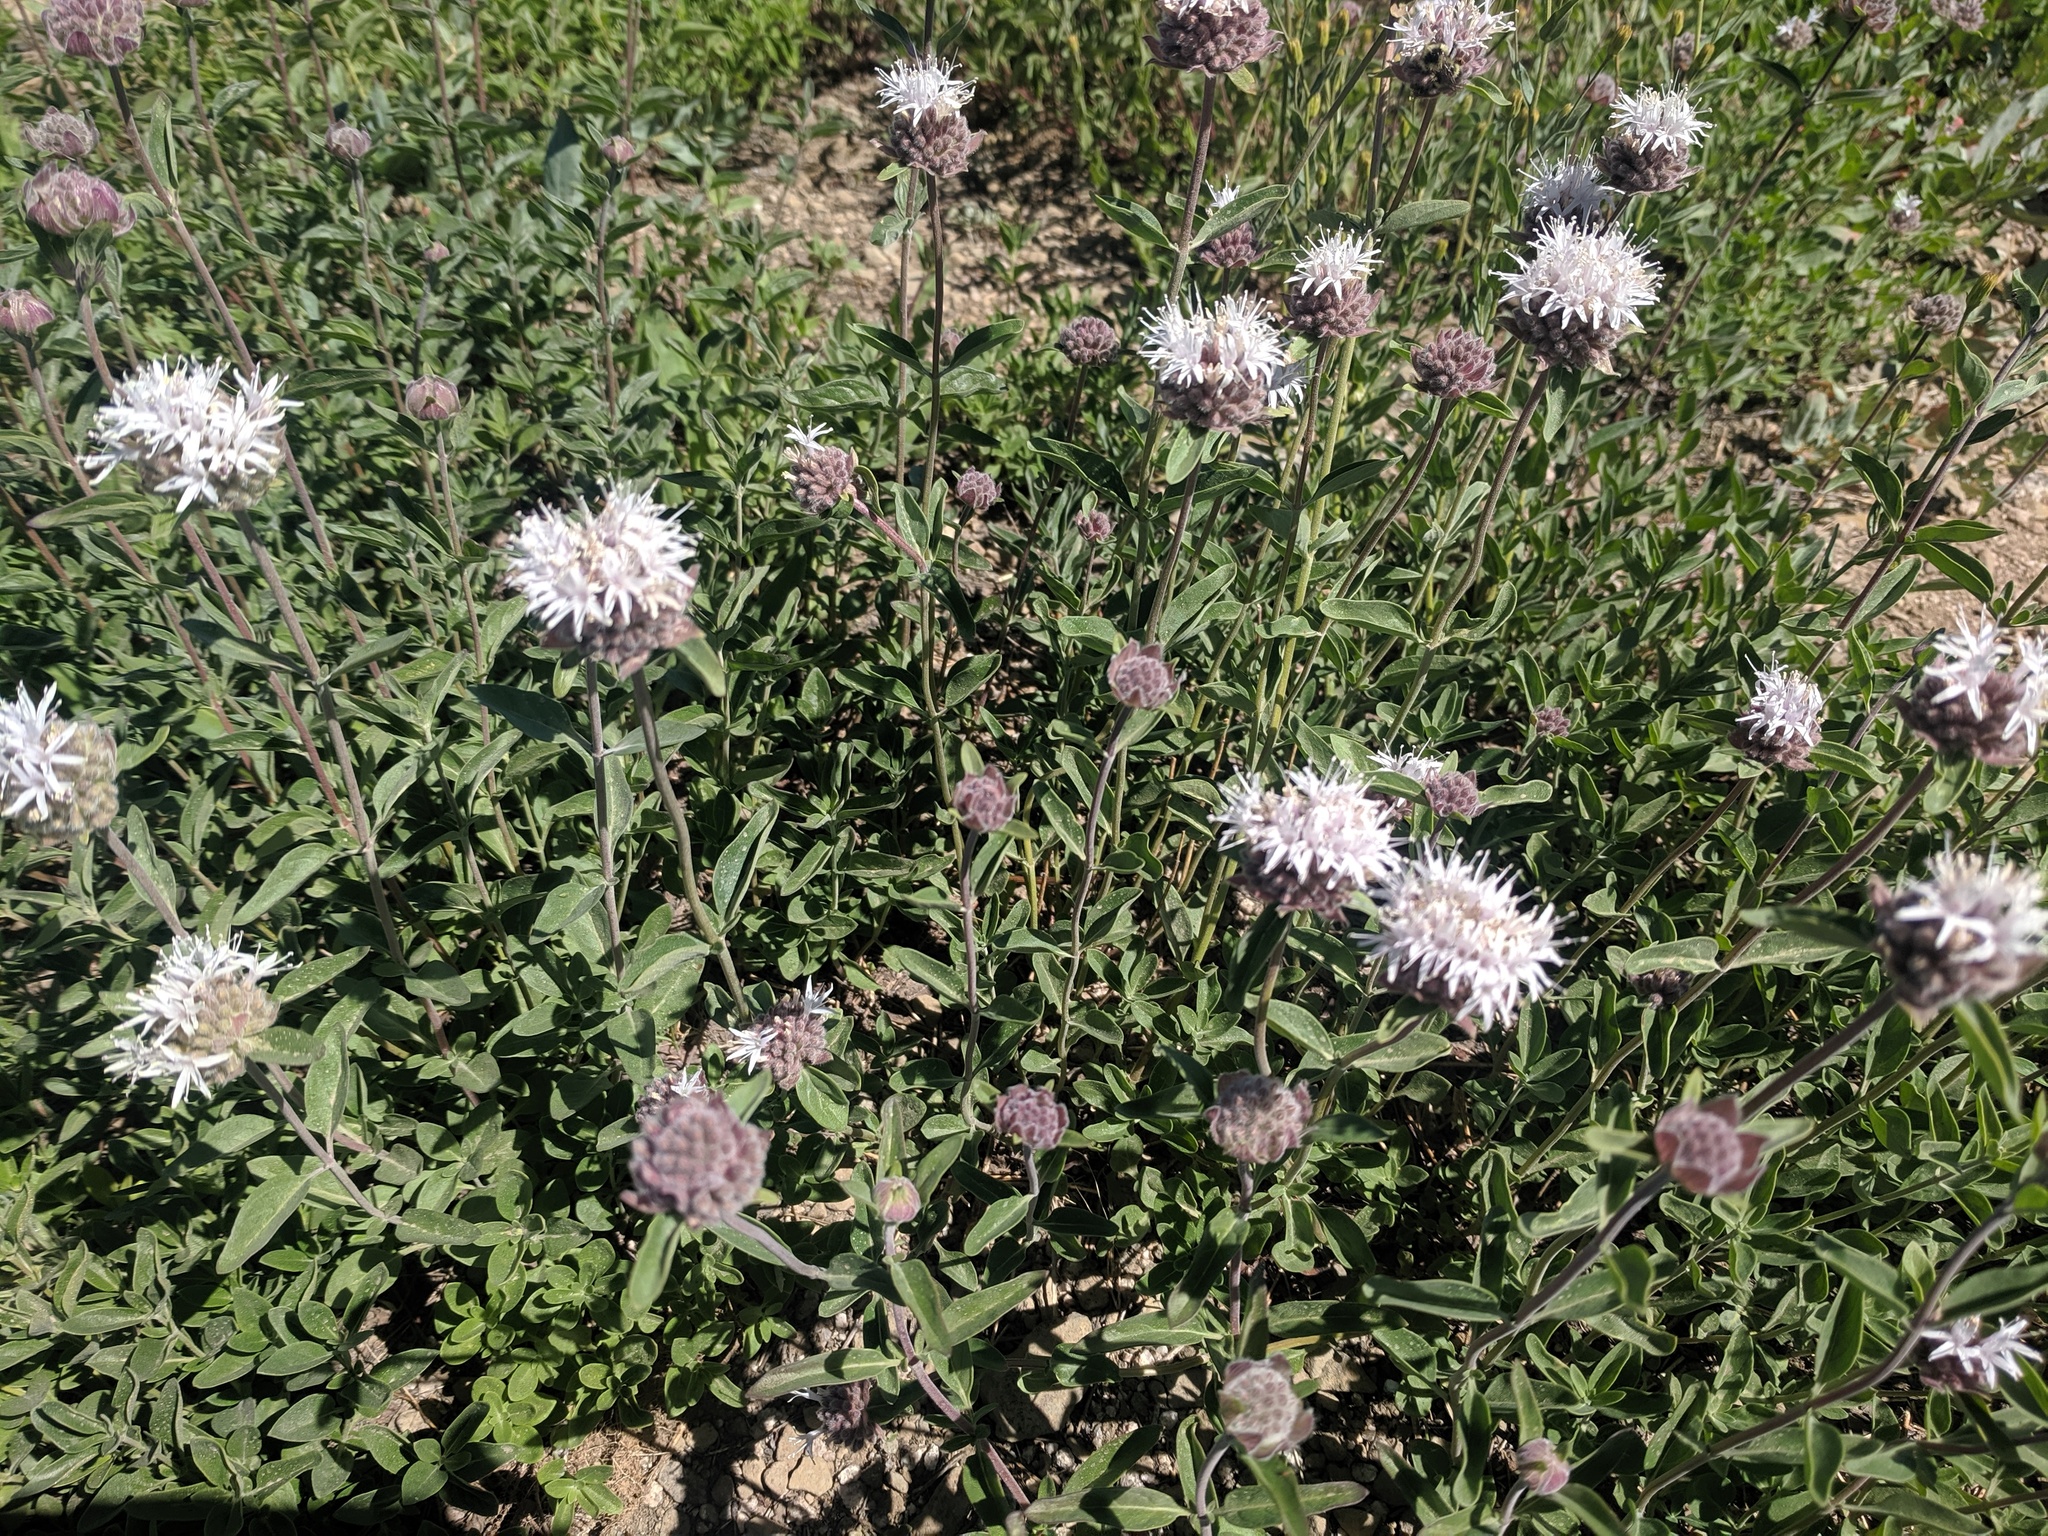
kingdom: Plantae
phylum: Tracheophyta
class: Magnoliopsida
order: Lamiales
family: Lamiaceae
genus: Monardella
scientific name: Monardella odoratissima
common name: Pacific monardella
